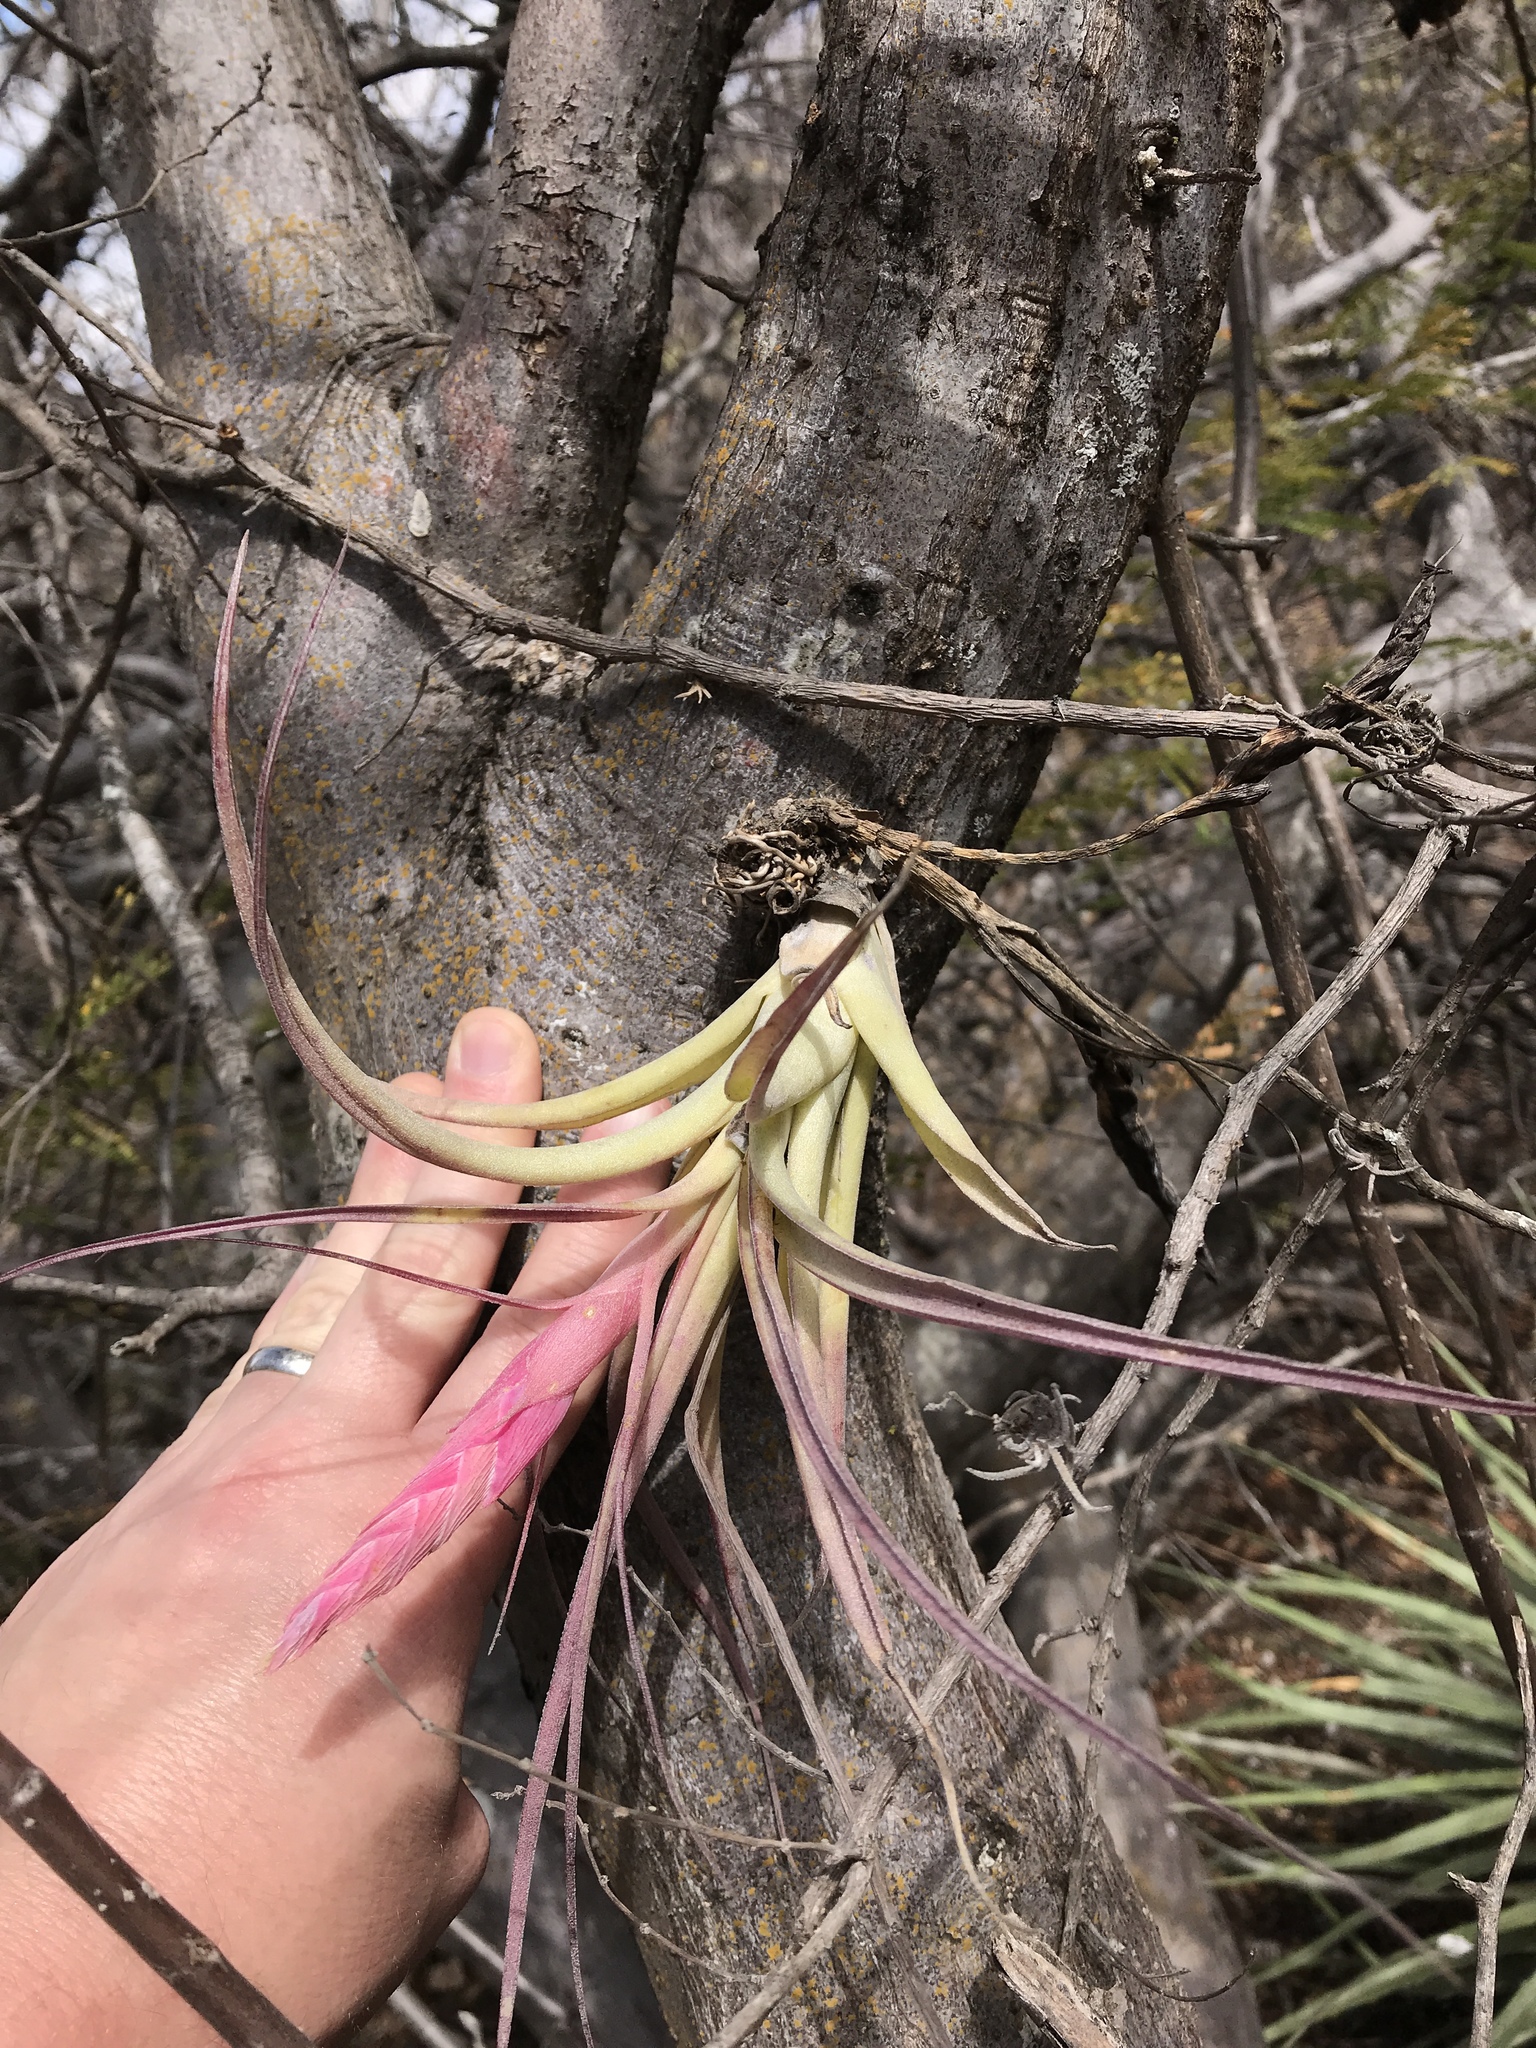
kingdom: Plantae
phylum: Tracheophyta
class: Liliopsida
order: Poales
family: Bromeliaceae
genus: Tillandsia
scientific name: Tillandsia achyrostachys
